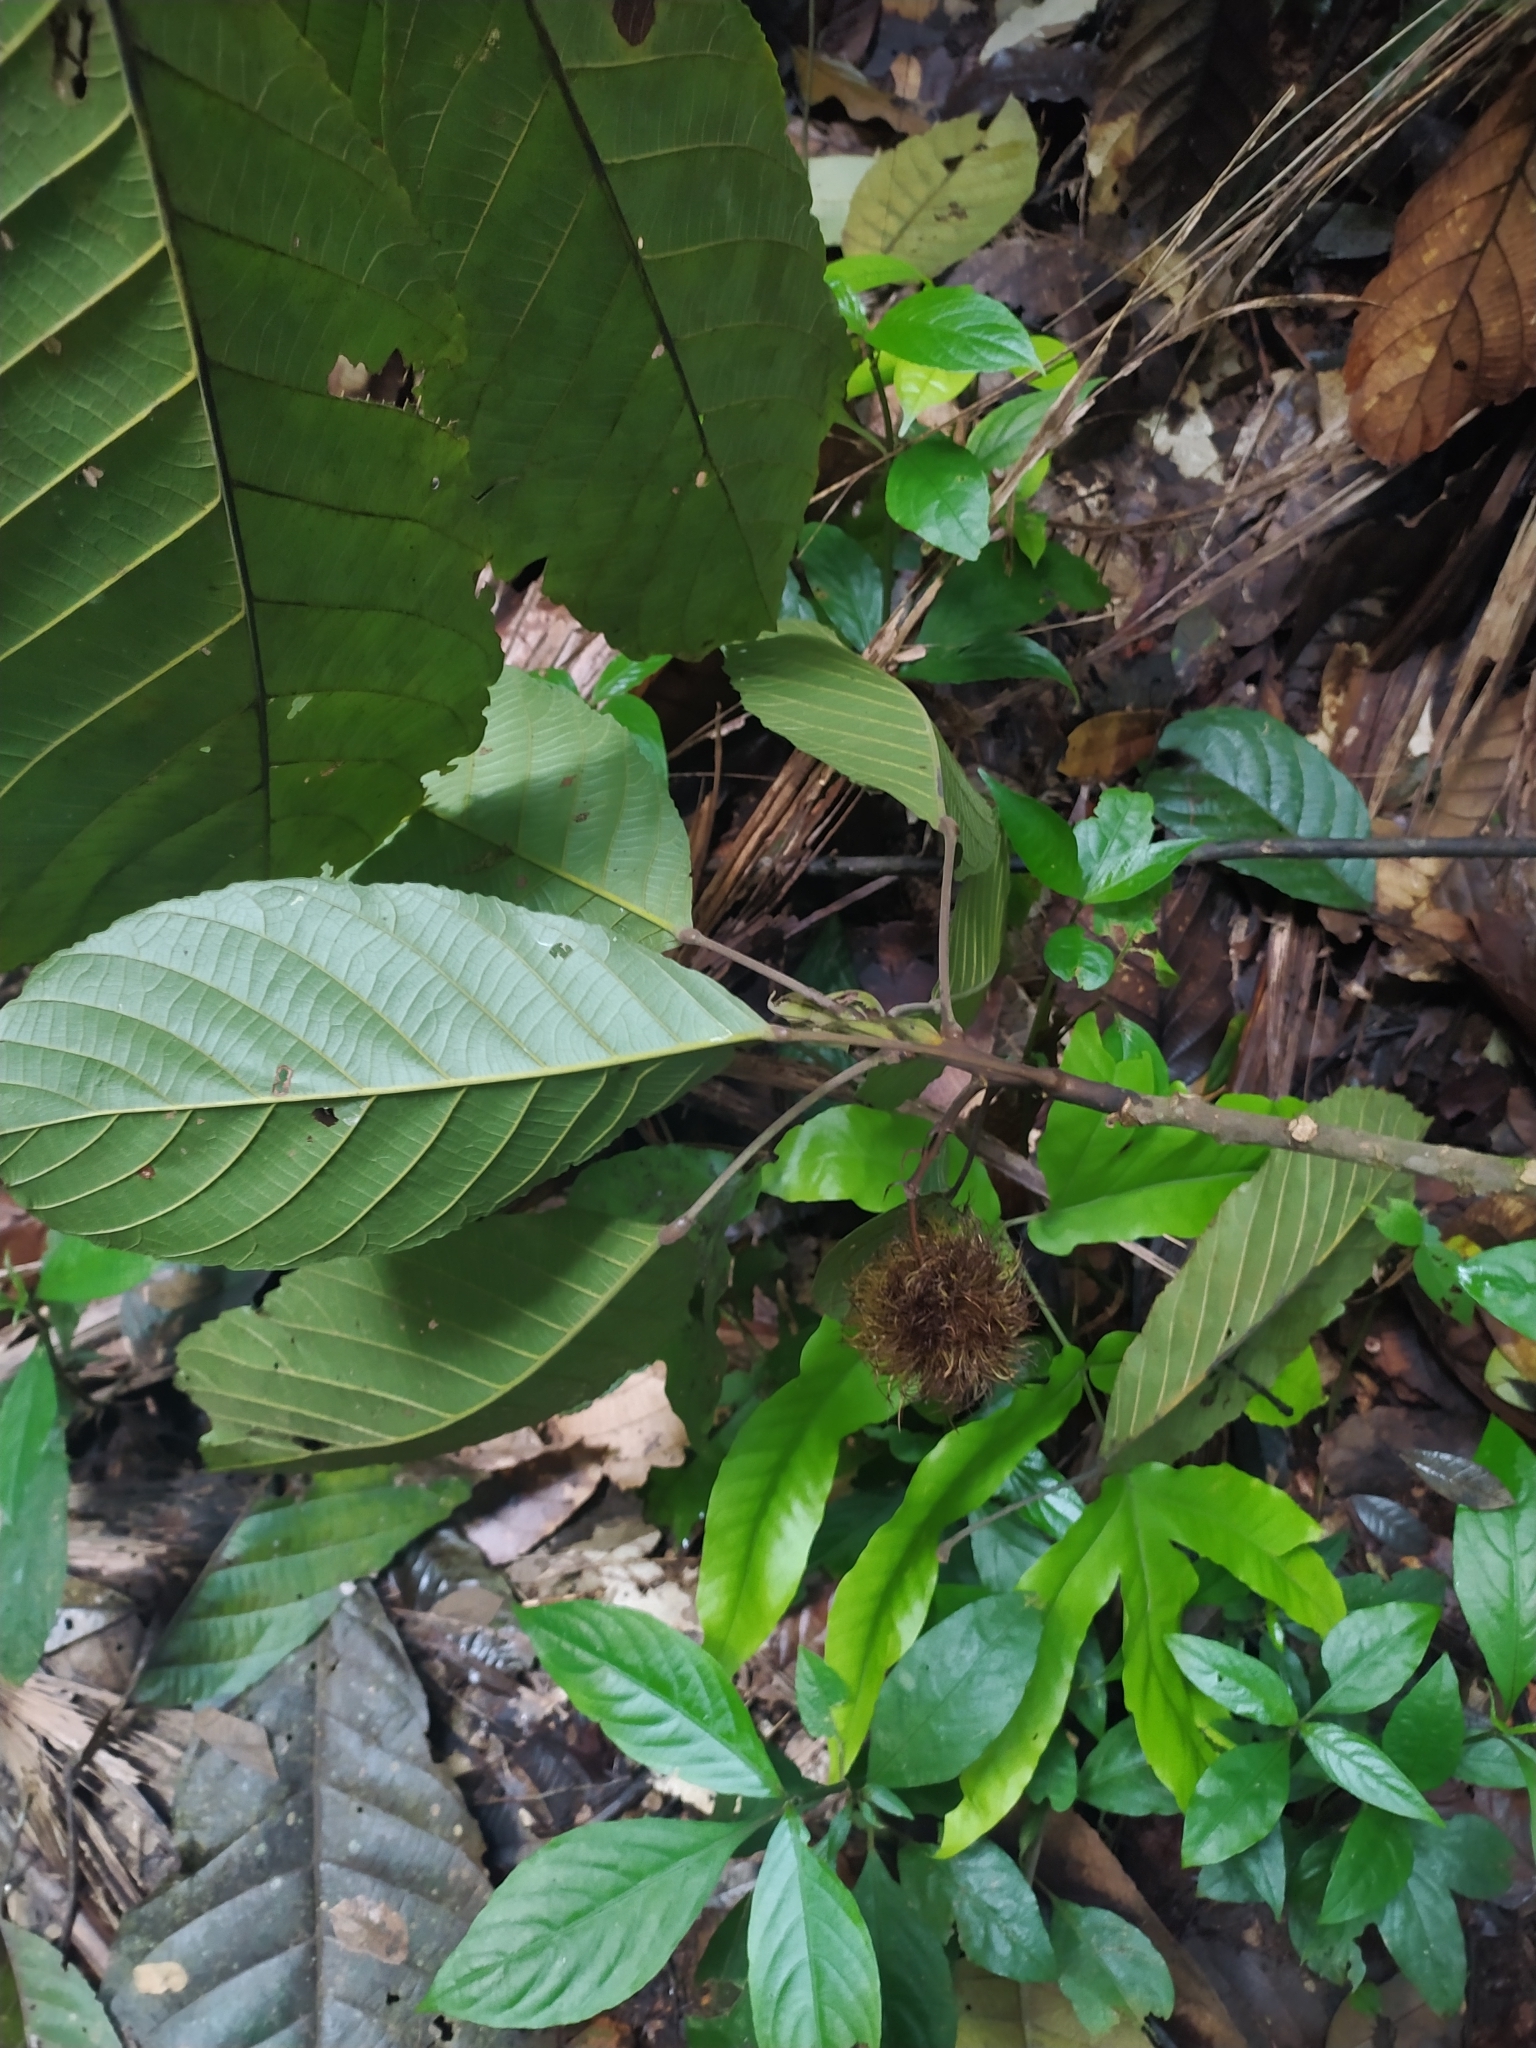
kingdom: Plantae
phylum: Tracheophyta
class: Magnoliopsida
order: Oxalidales
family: Elaeocarpaceae
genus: Sloanea
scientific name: Sloanea grandiflora
